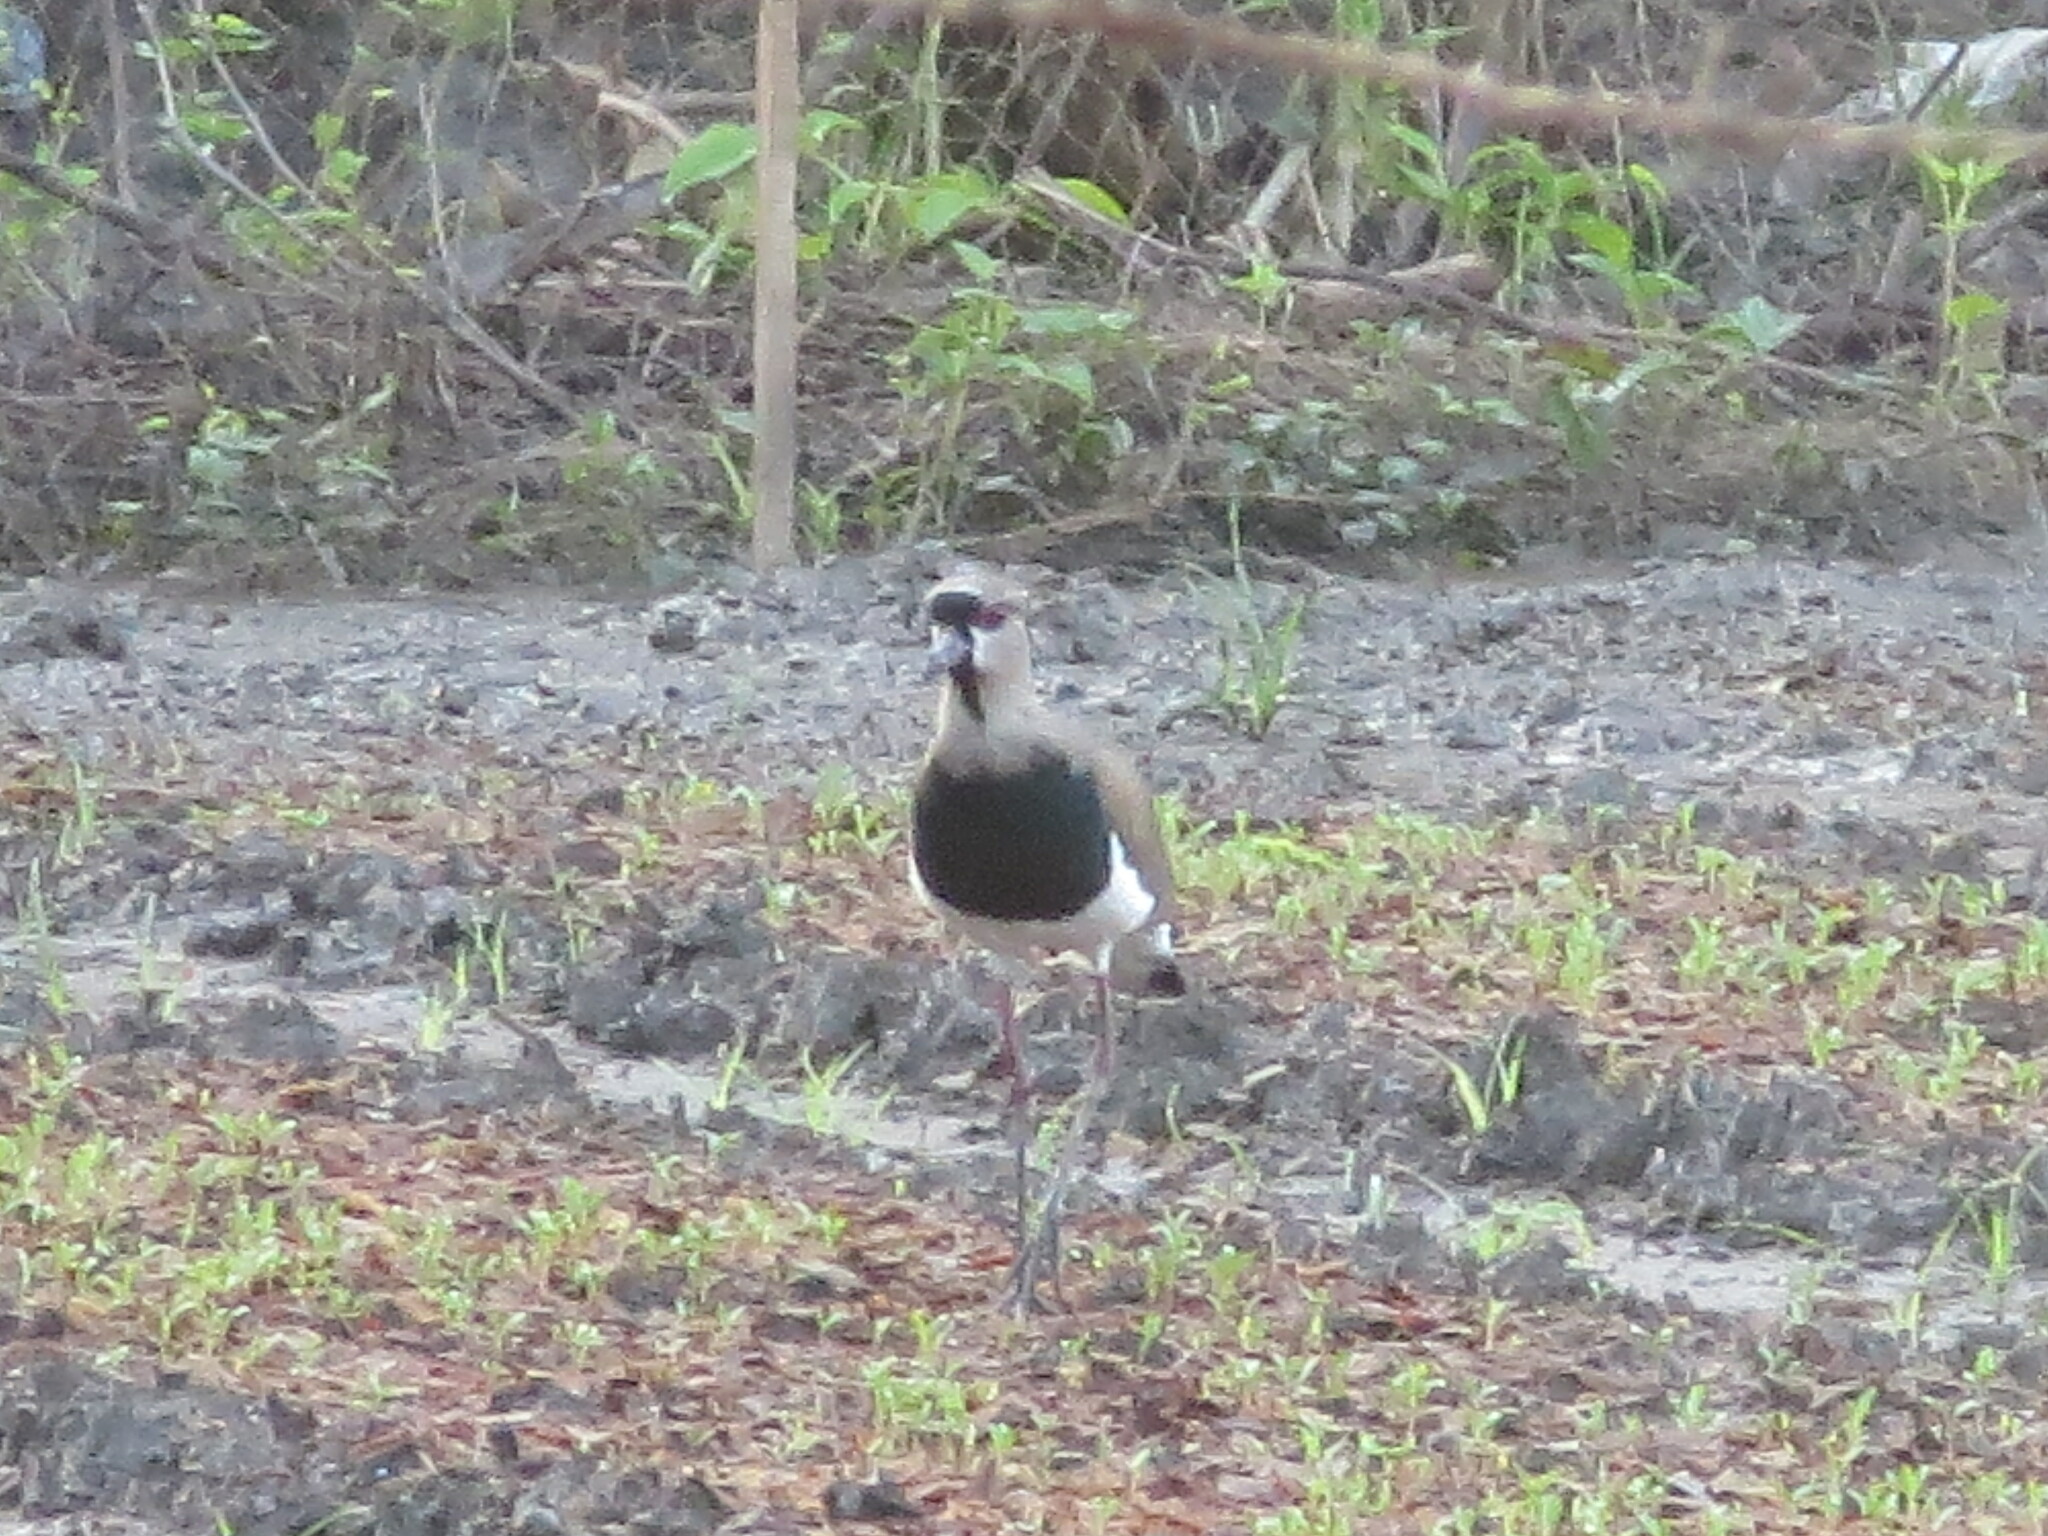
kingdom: Animalia
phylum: Chordata
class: Aves
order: Charadriiformes
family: Charadriidae
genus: Vanellus
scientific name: Vanellus chilensis
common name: Southern lapwing
